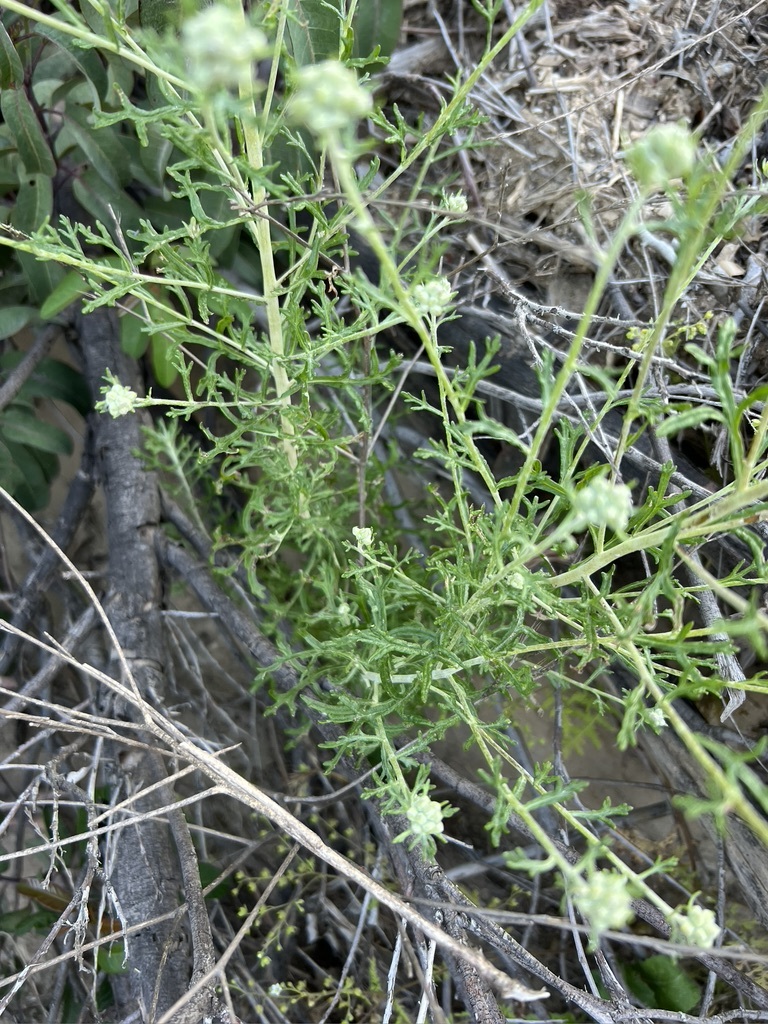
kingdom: Plantae
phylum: Tracheophyta
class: Magnoliopsida
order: Asterales
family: Asteraceae
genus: Eriophyllum
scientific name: Eriophyllum confertiflorum
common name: Golden-yarrow
